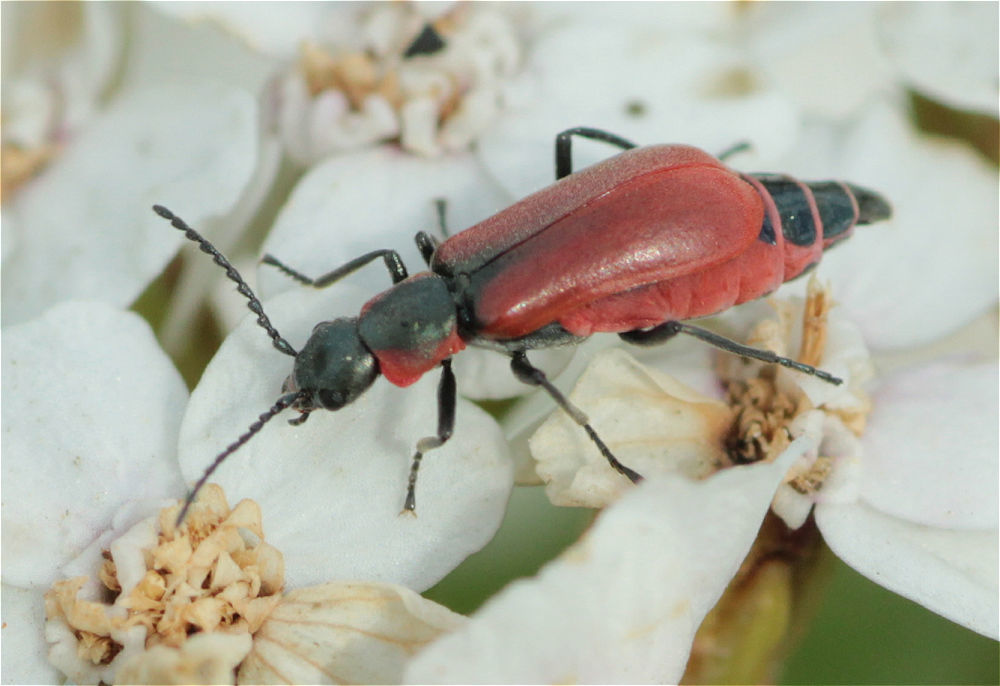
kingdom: Animalia
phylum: Arthropoda
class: Insecta
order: Coleoptera
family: Melyridae
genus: Anthocomus
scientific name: Anthocomus rufus
